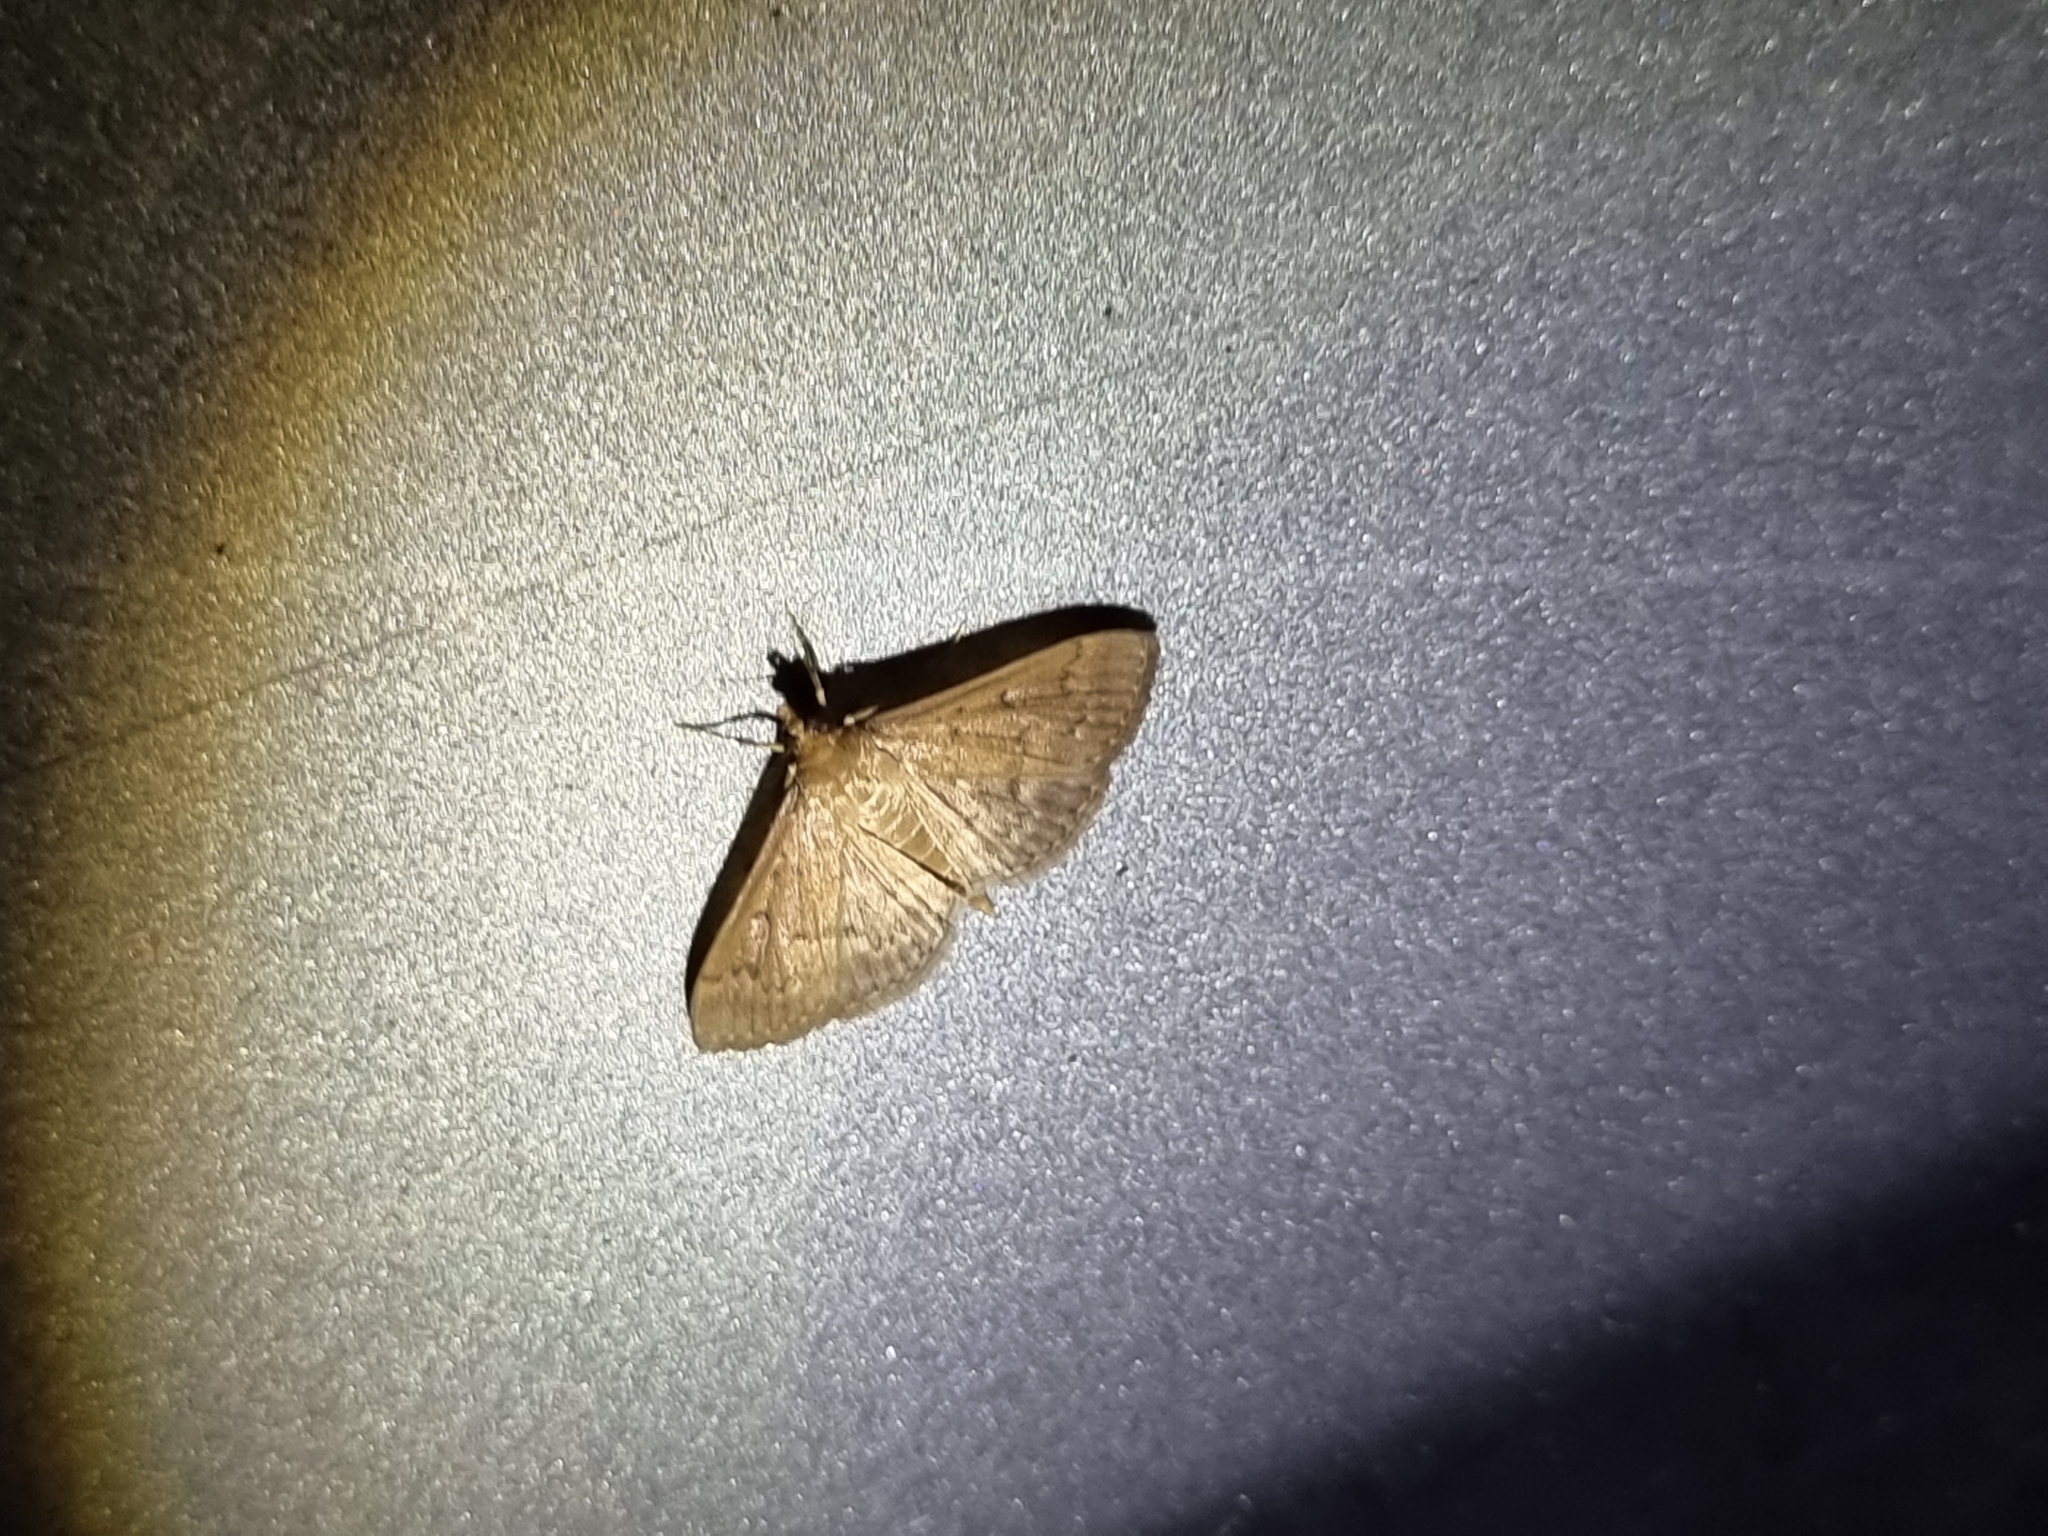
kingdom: Animalia
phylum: Arthropoda
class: Insecta
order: Lepidoptera
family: Crambidae
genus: Herpetogramma
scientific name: Herpetogramma licarsisalis
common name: Grass webworm
